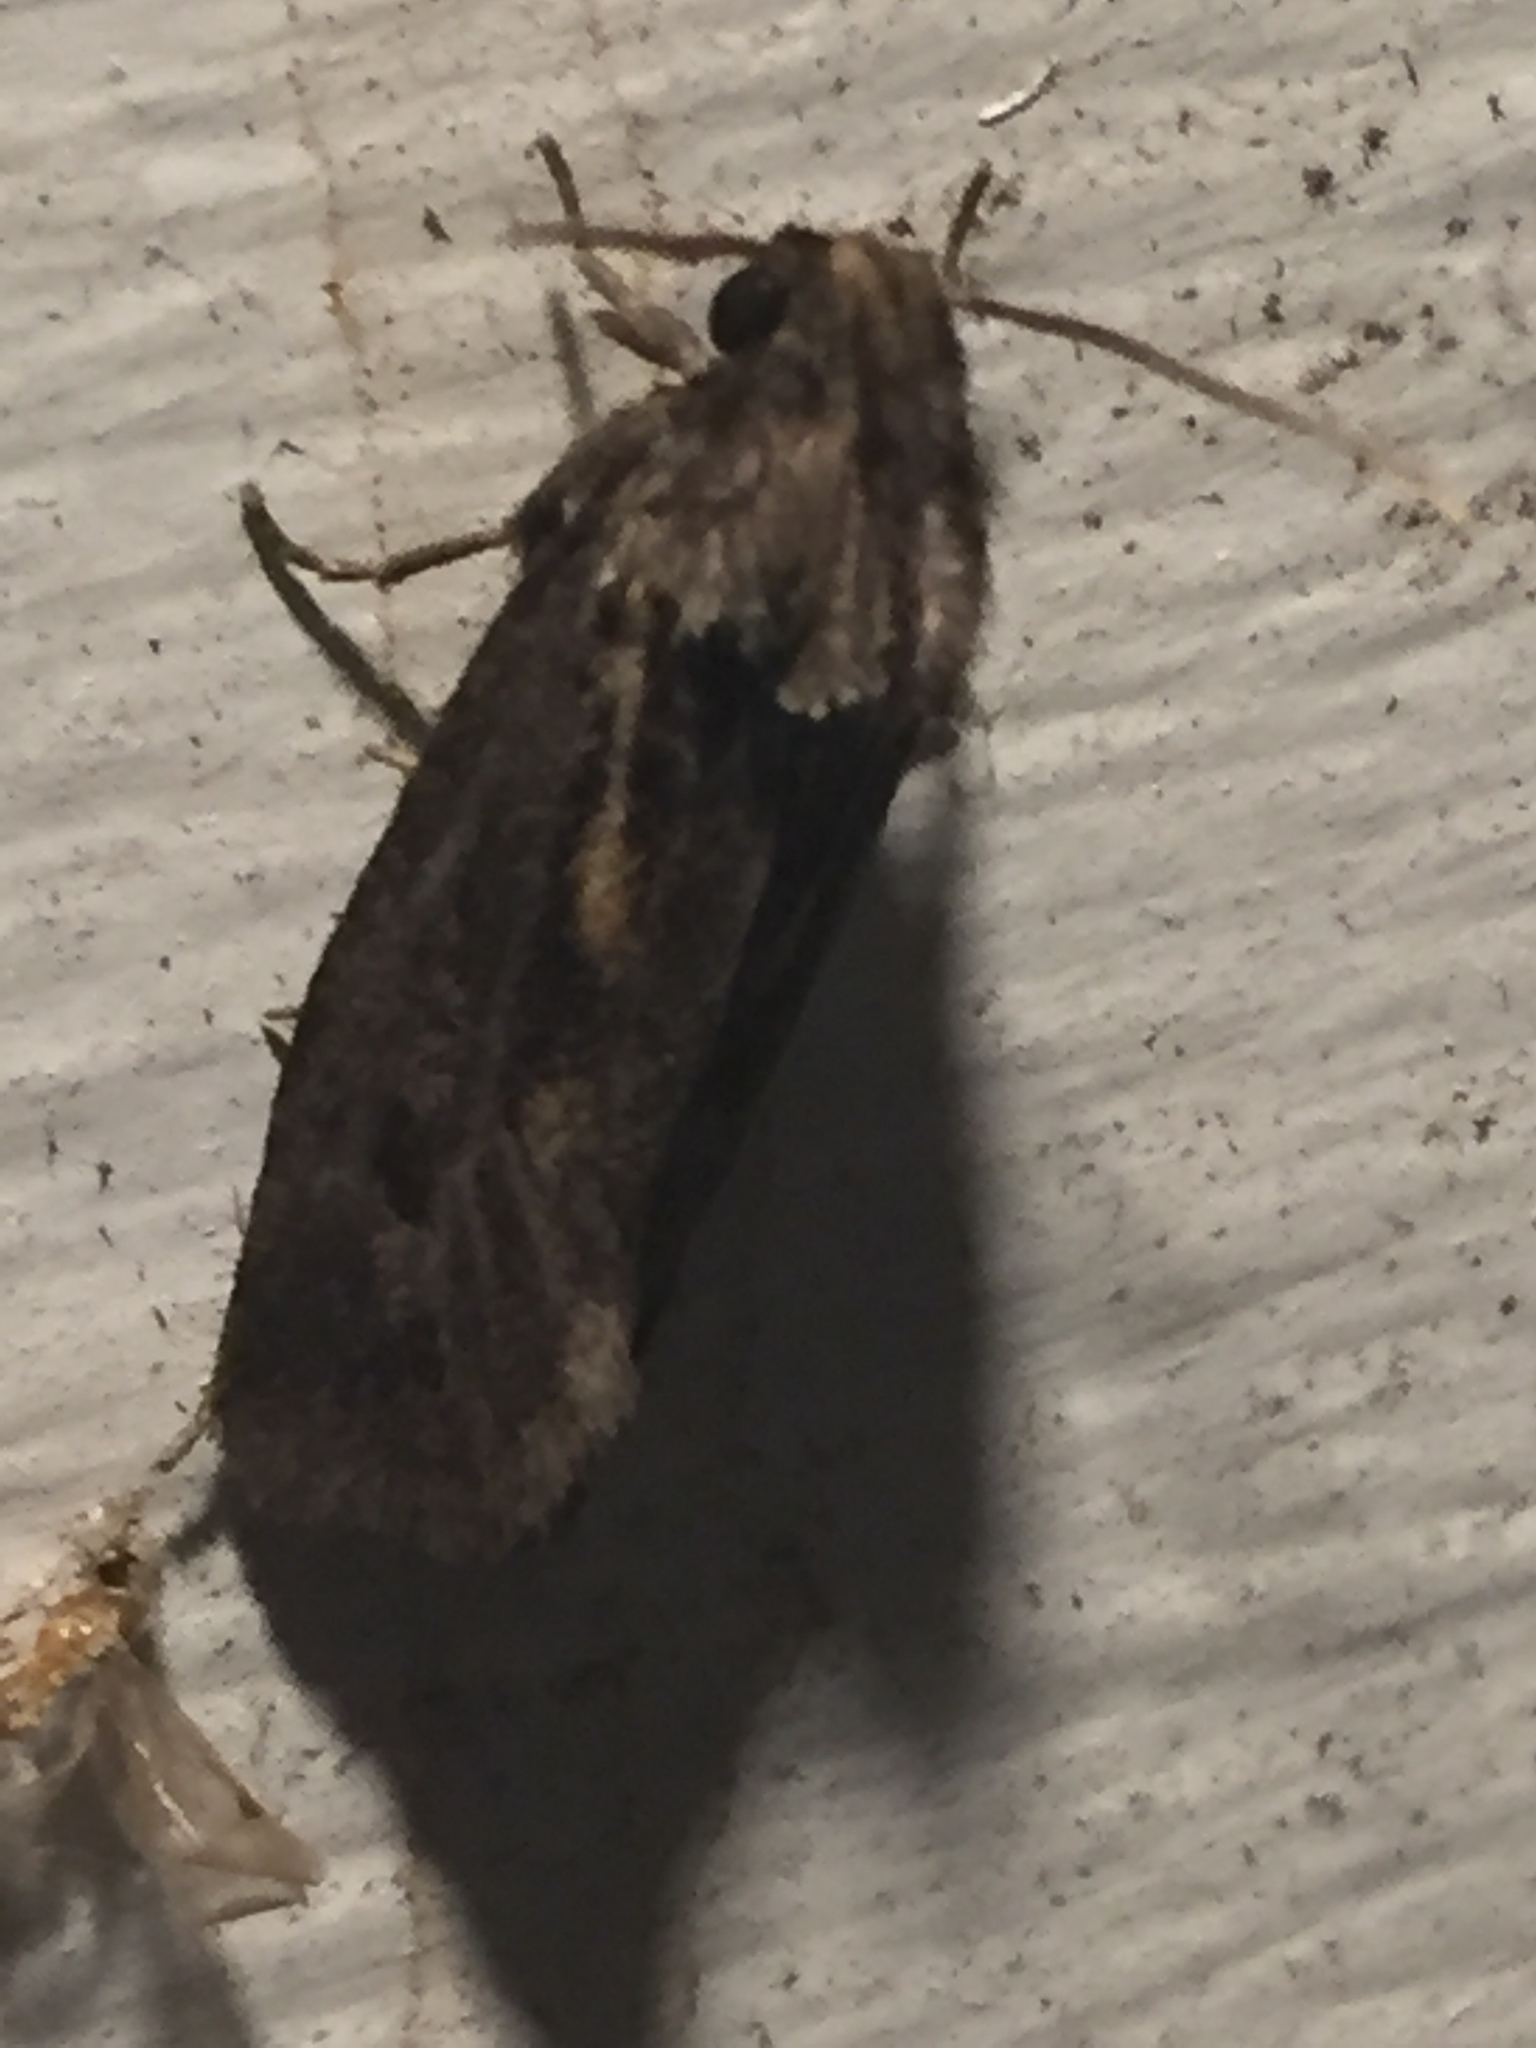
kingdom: Animalia
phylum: Arthropoda
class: Insecta
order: Lepidoptera
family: Tineidae
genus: Acrolophus
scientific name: Acrolophus arcanella
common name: Arcane grass tubeworm moth
